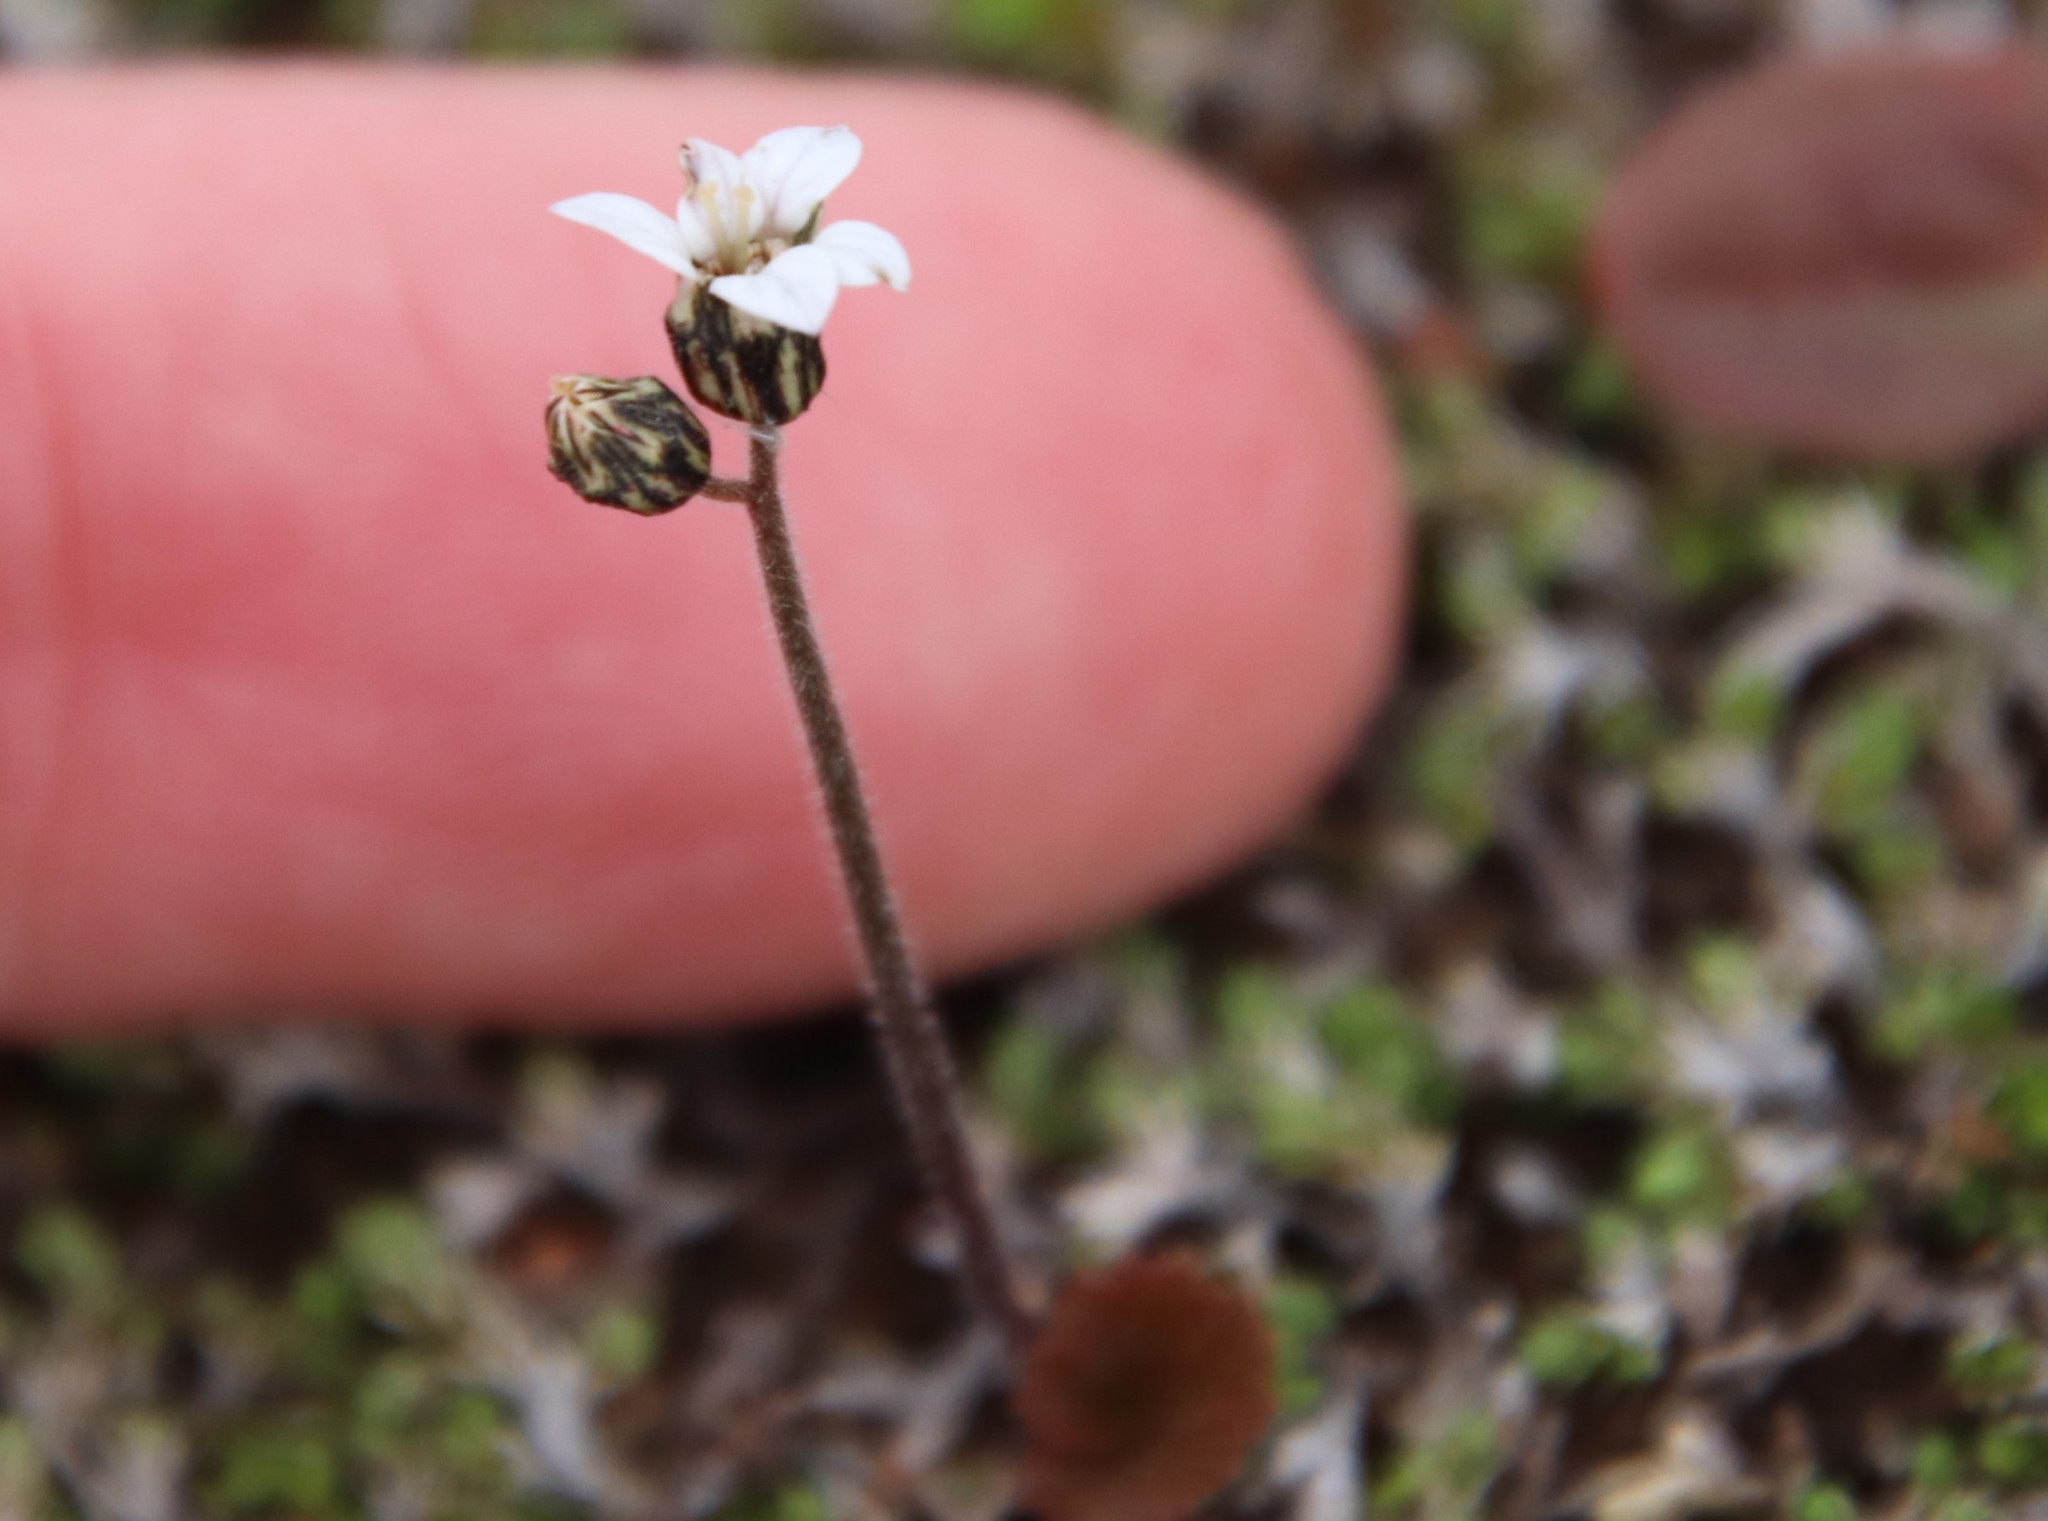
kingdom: Plantae
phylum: Tracheophyta
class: Magnoliopsida
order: Saxifragales
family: Saxifragaceae
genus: Jepsonia
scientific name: Jepsonia parryi
